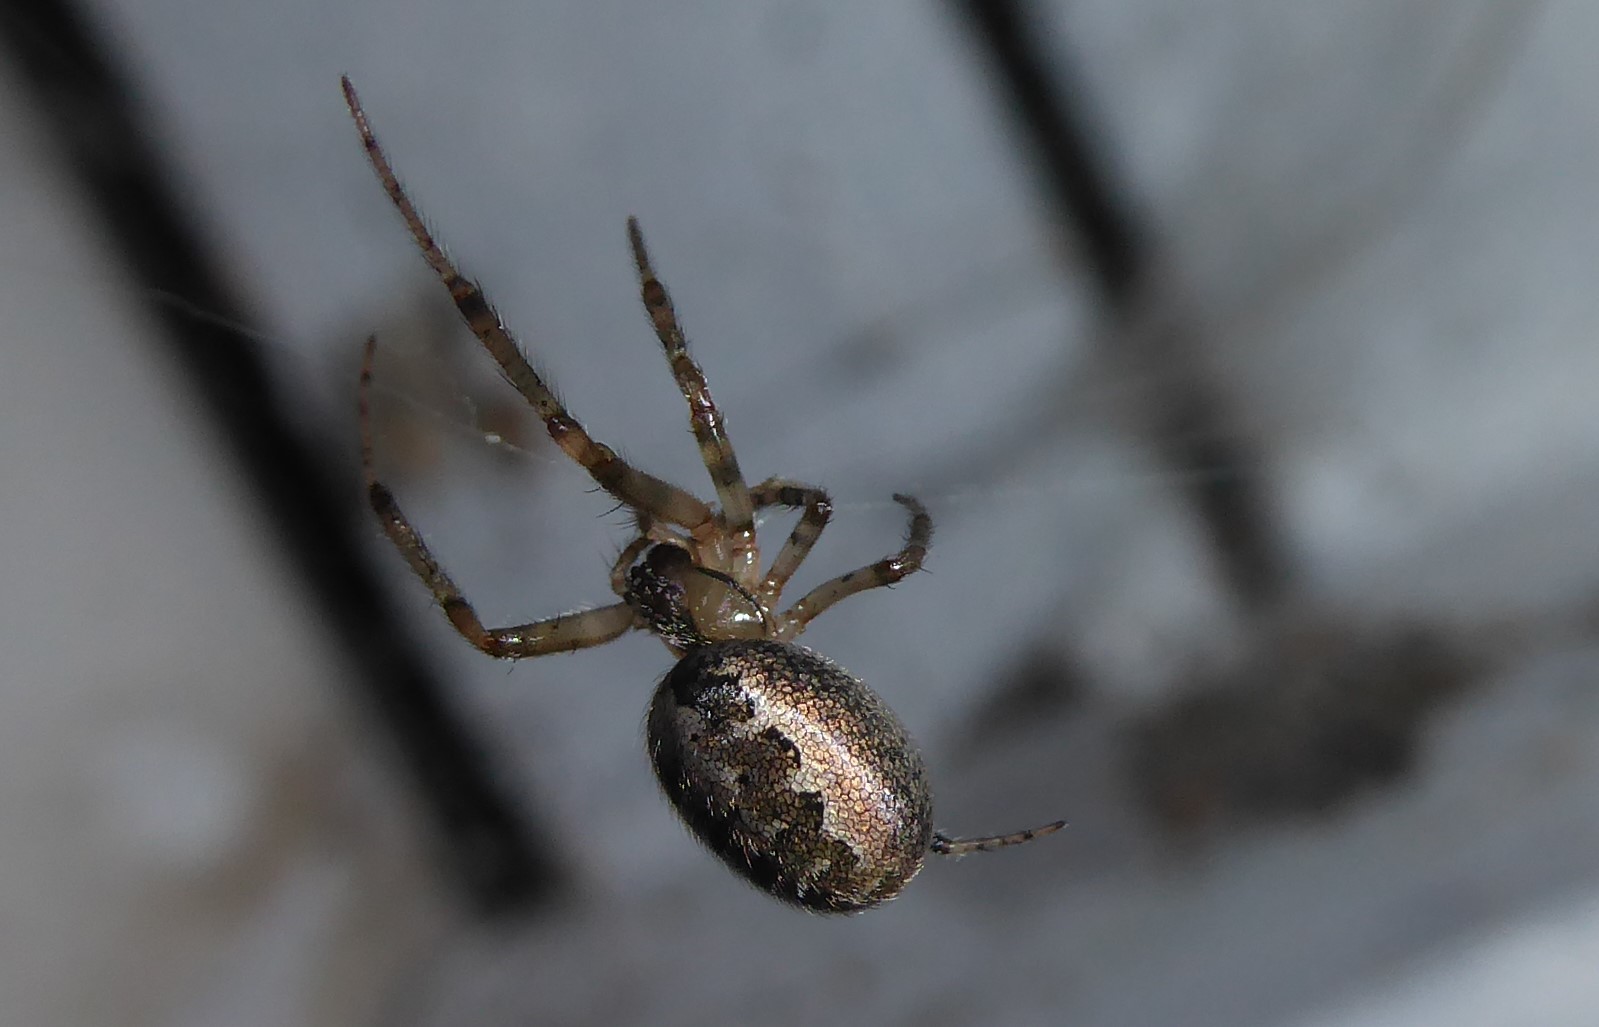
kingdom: Animalia
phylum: Arthropoda
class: Arachnida
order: Araneae
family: Araneidae
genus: Zygiella
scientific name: Zygiella x-notata
